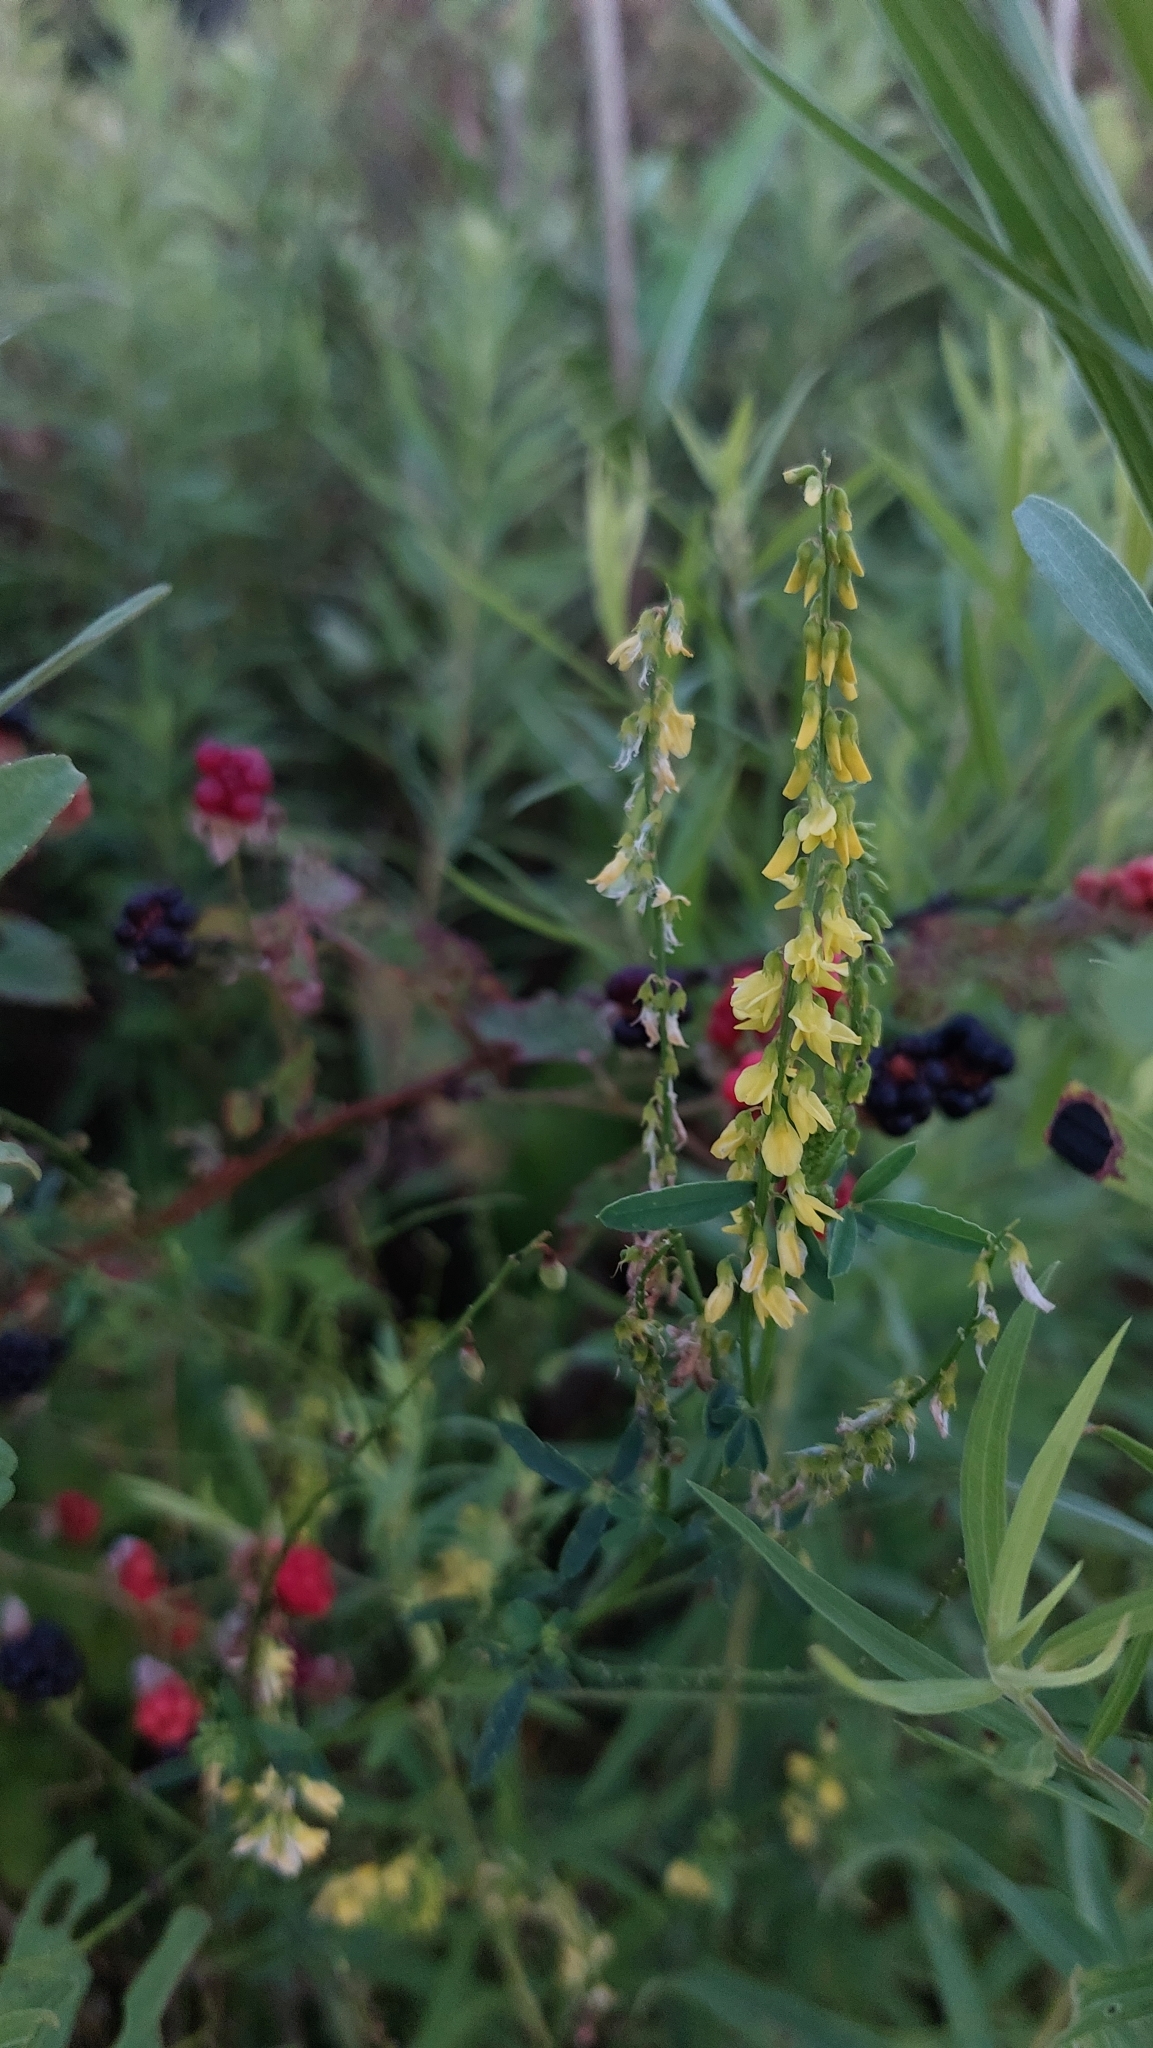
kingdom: Plantae
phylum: Tracheophyta
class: Magnoliopsida
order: Fabales
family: Fabaceae
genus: Melilotus
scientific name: Melilotus officinalis
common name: Sweetclover
